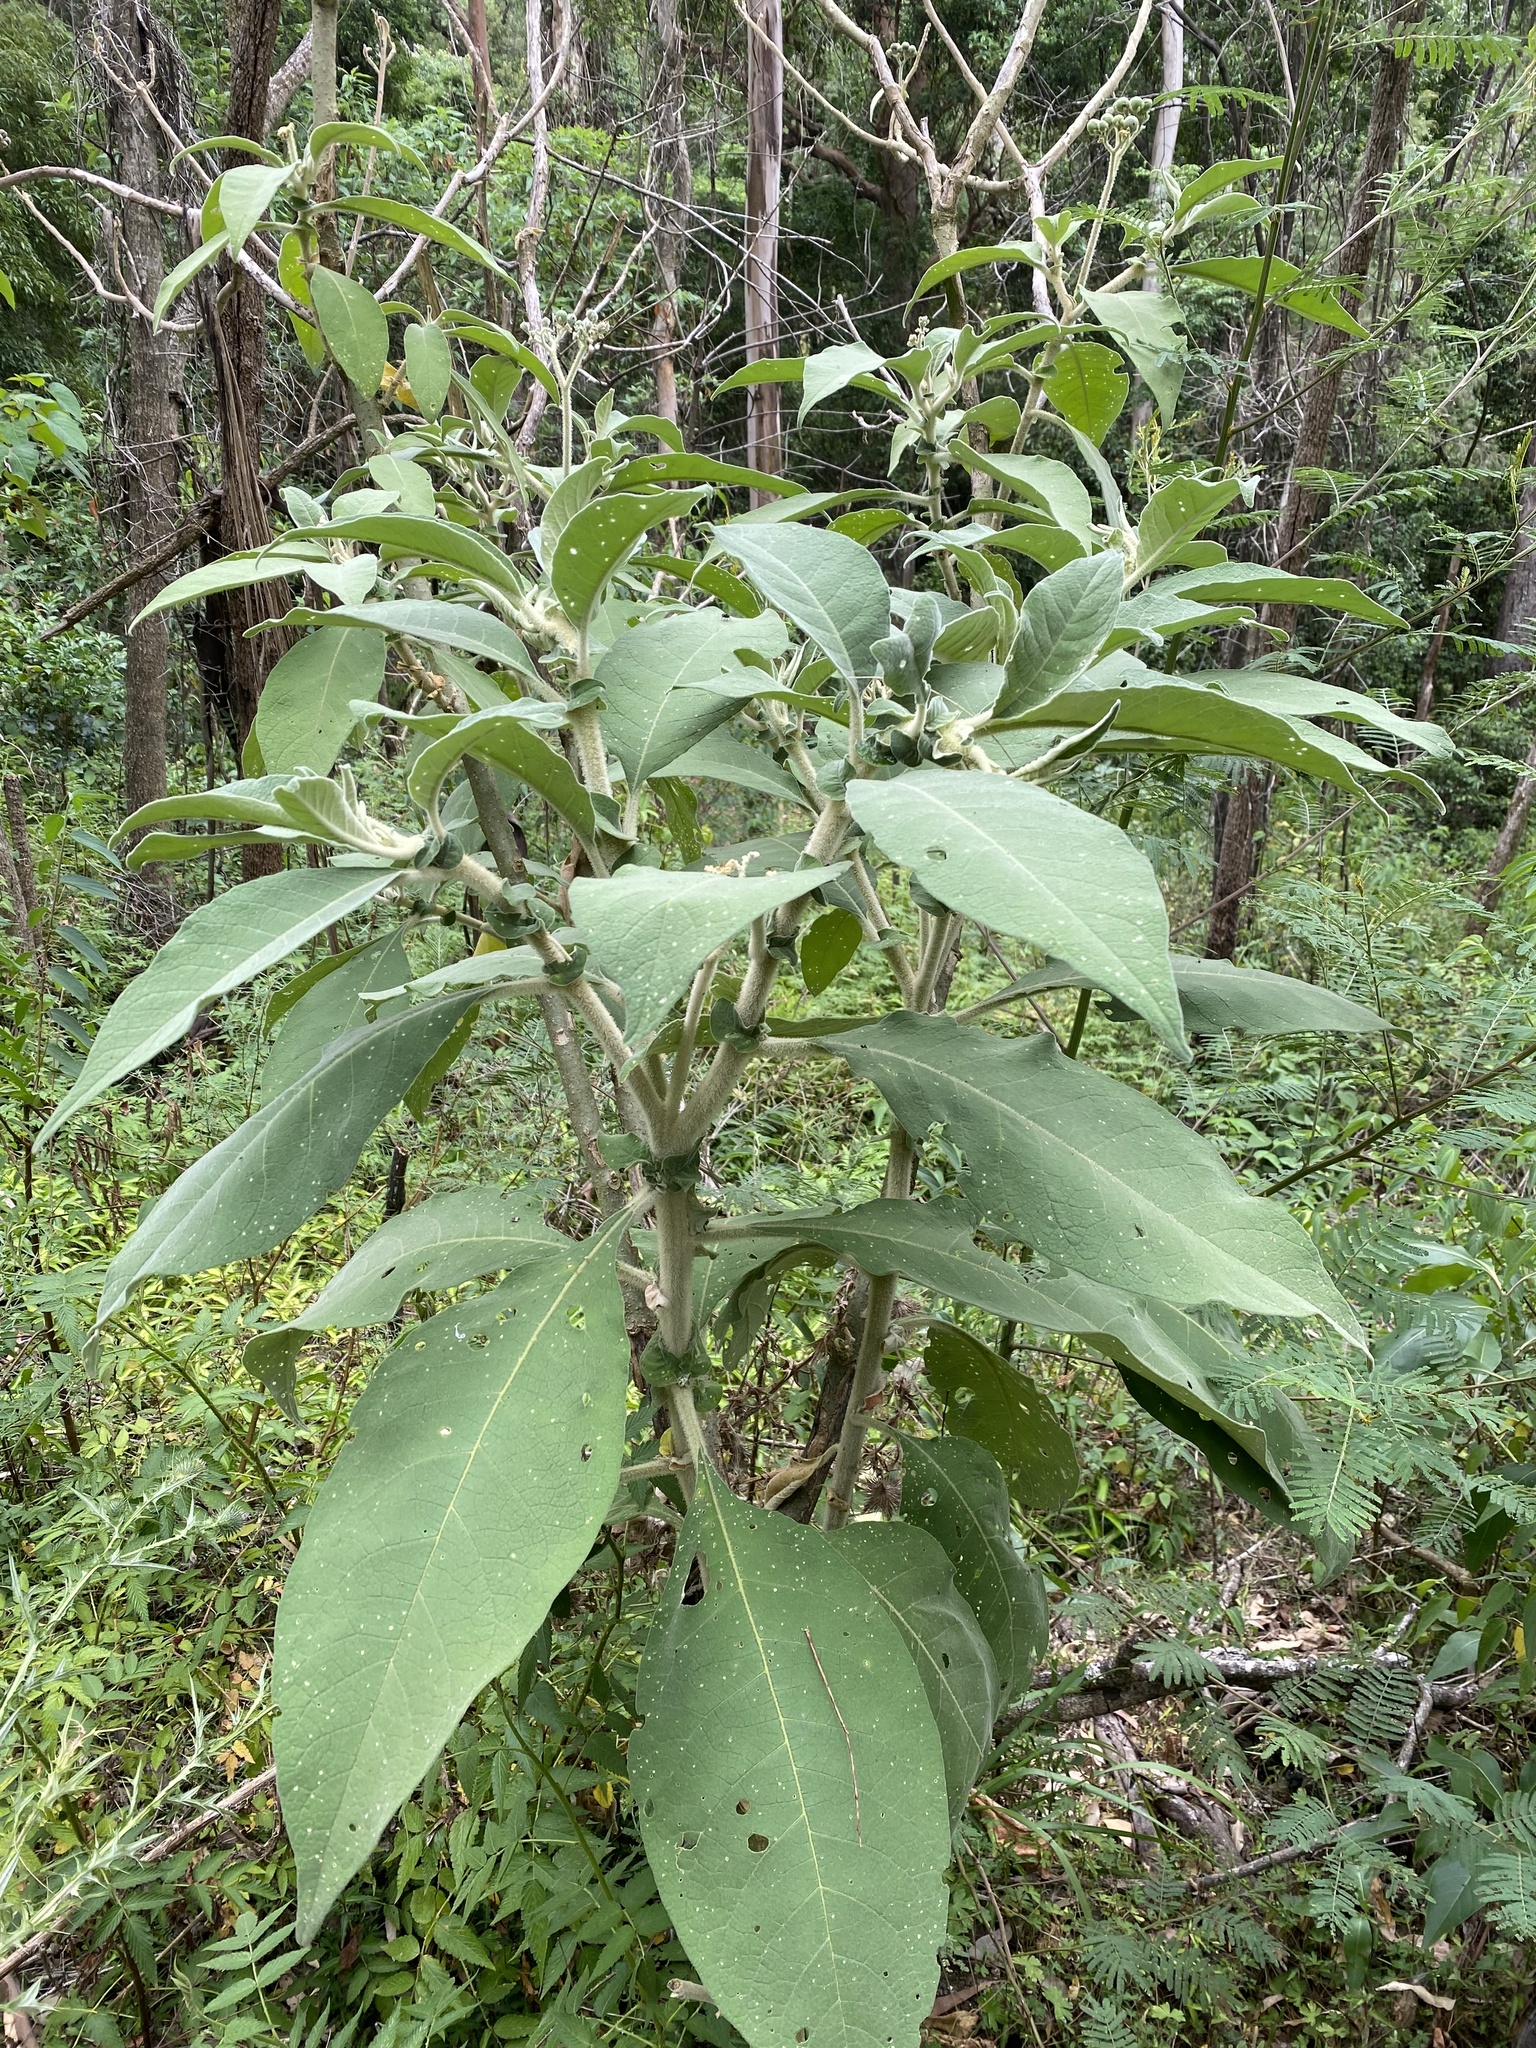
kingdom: Plantae
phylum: Tracheophyta
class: Magnoliopsida
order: Solanales
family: Solanaceae
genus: Solanum
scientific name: Solanum mauritianum
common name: Earleaf nightshade
